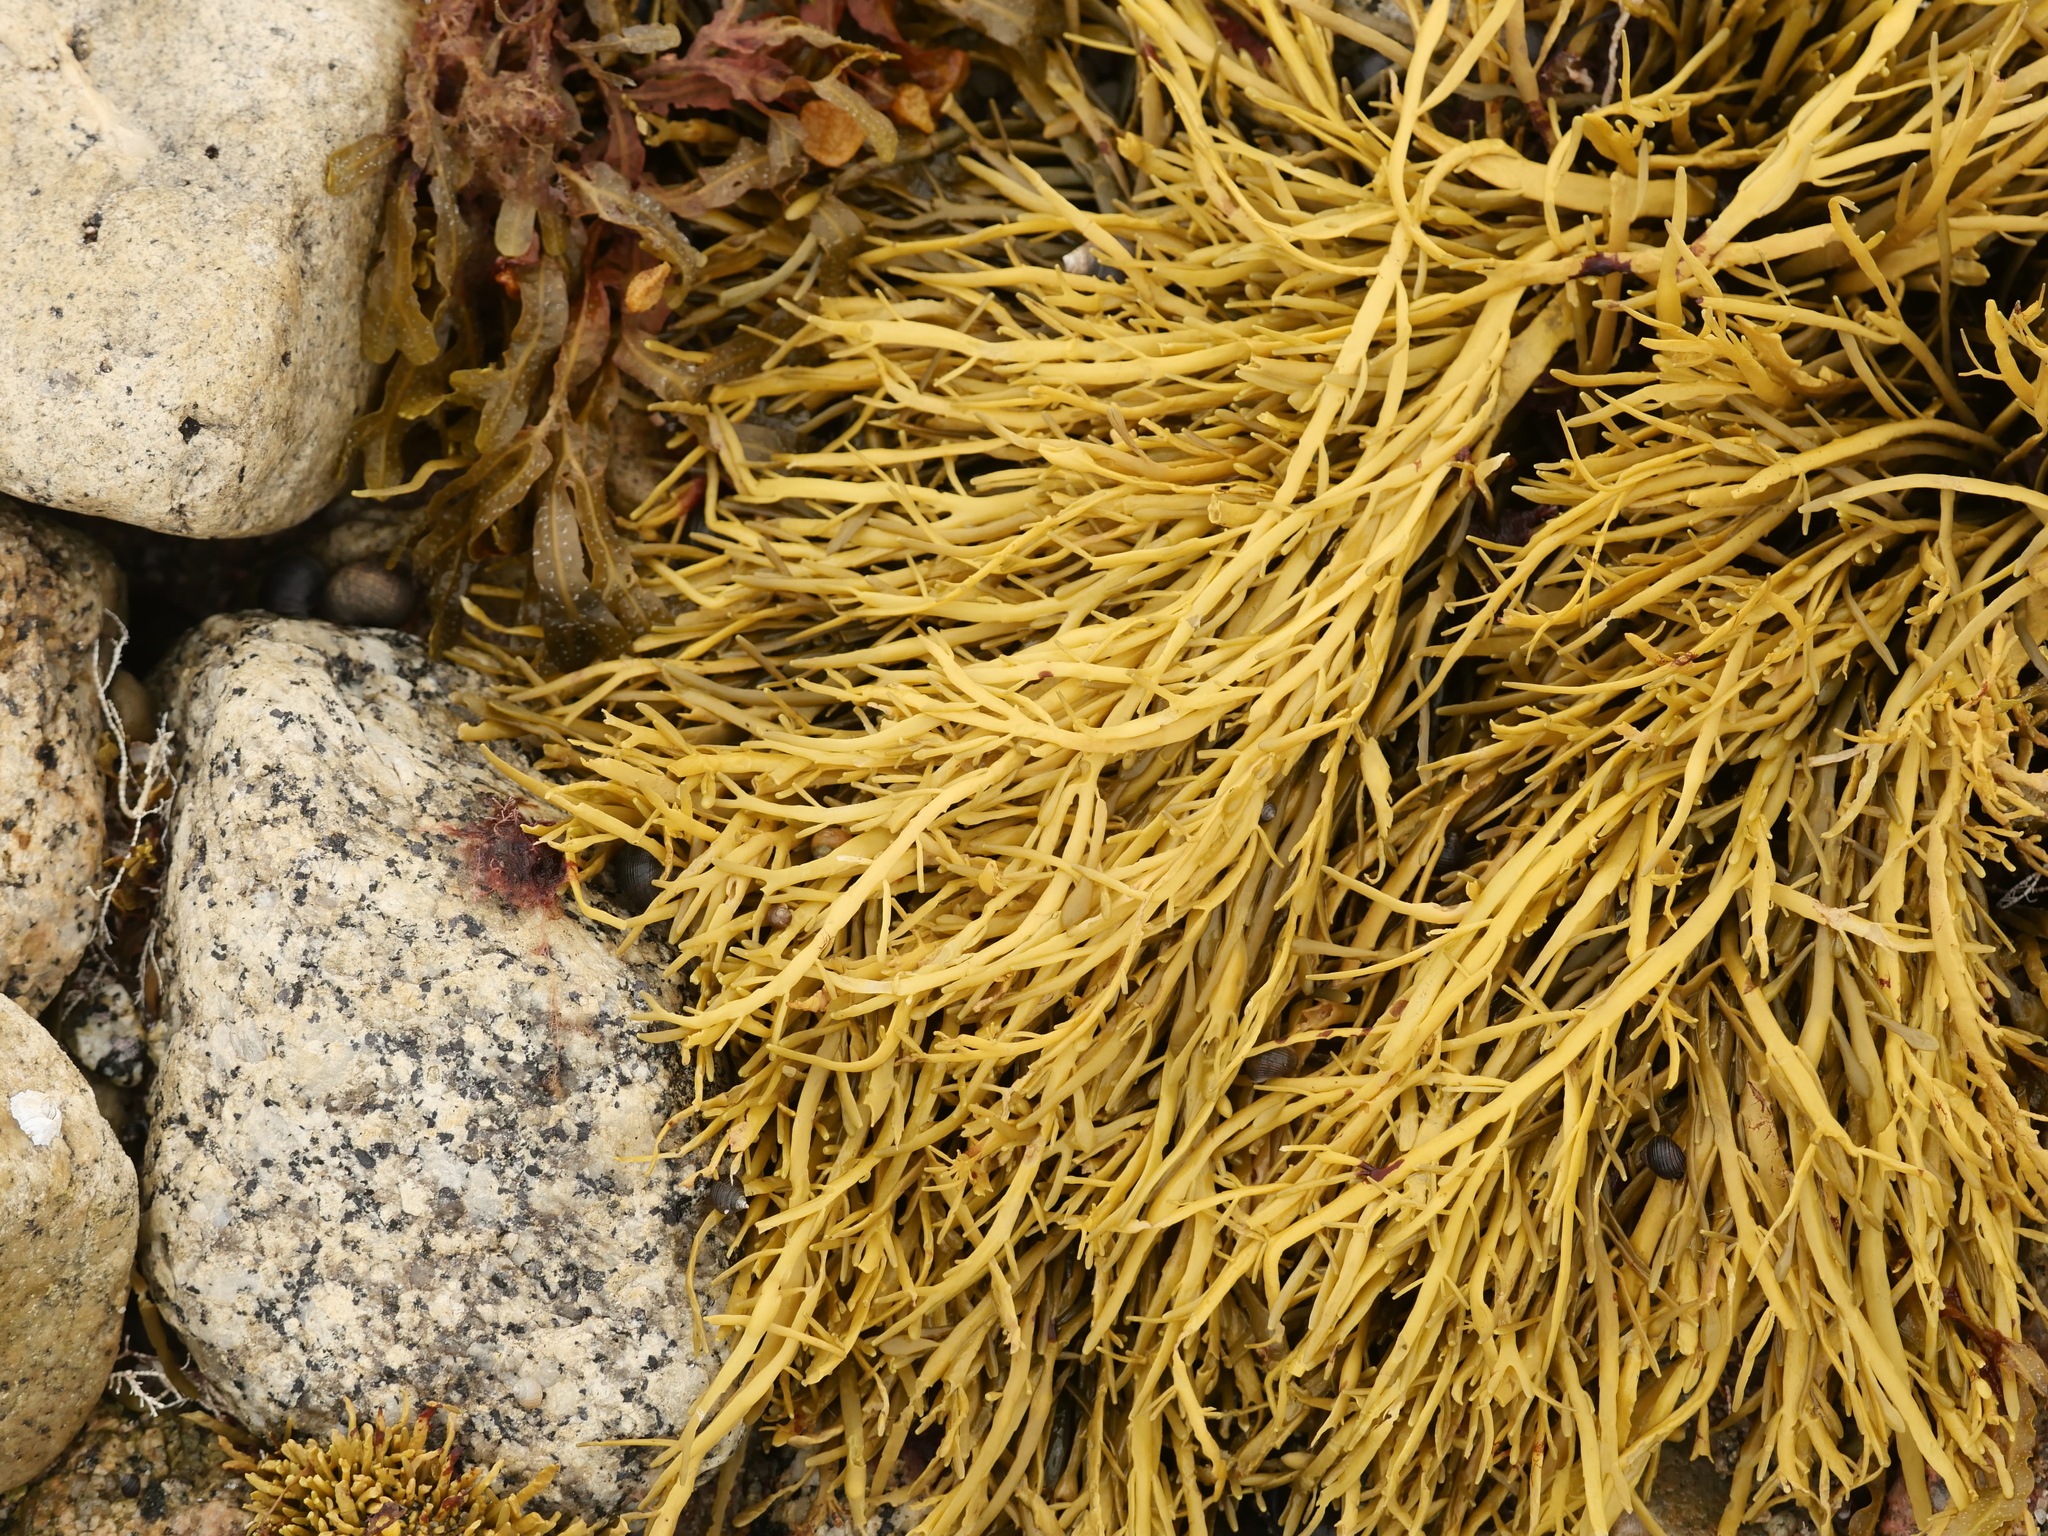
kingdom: Chromista
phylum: Ochrophyta
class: Phaeophyceae
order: Fucales
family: Fucaceae
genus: Ascophyllum
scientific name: Ascophyllum nodosum
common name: Knotted wrack
